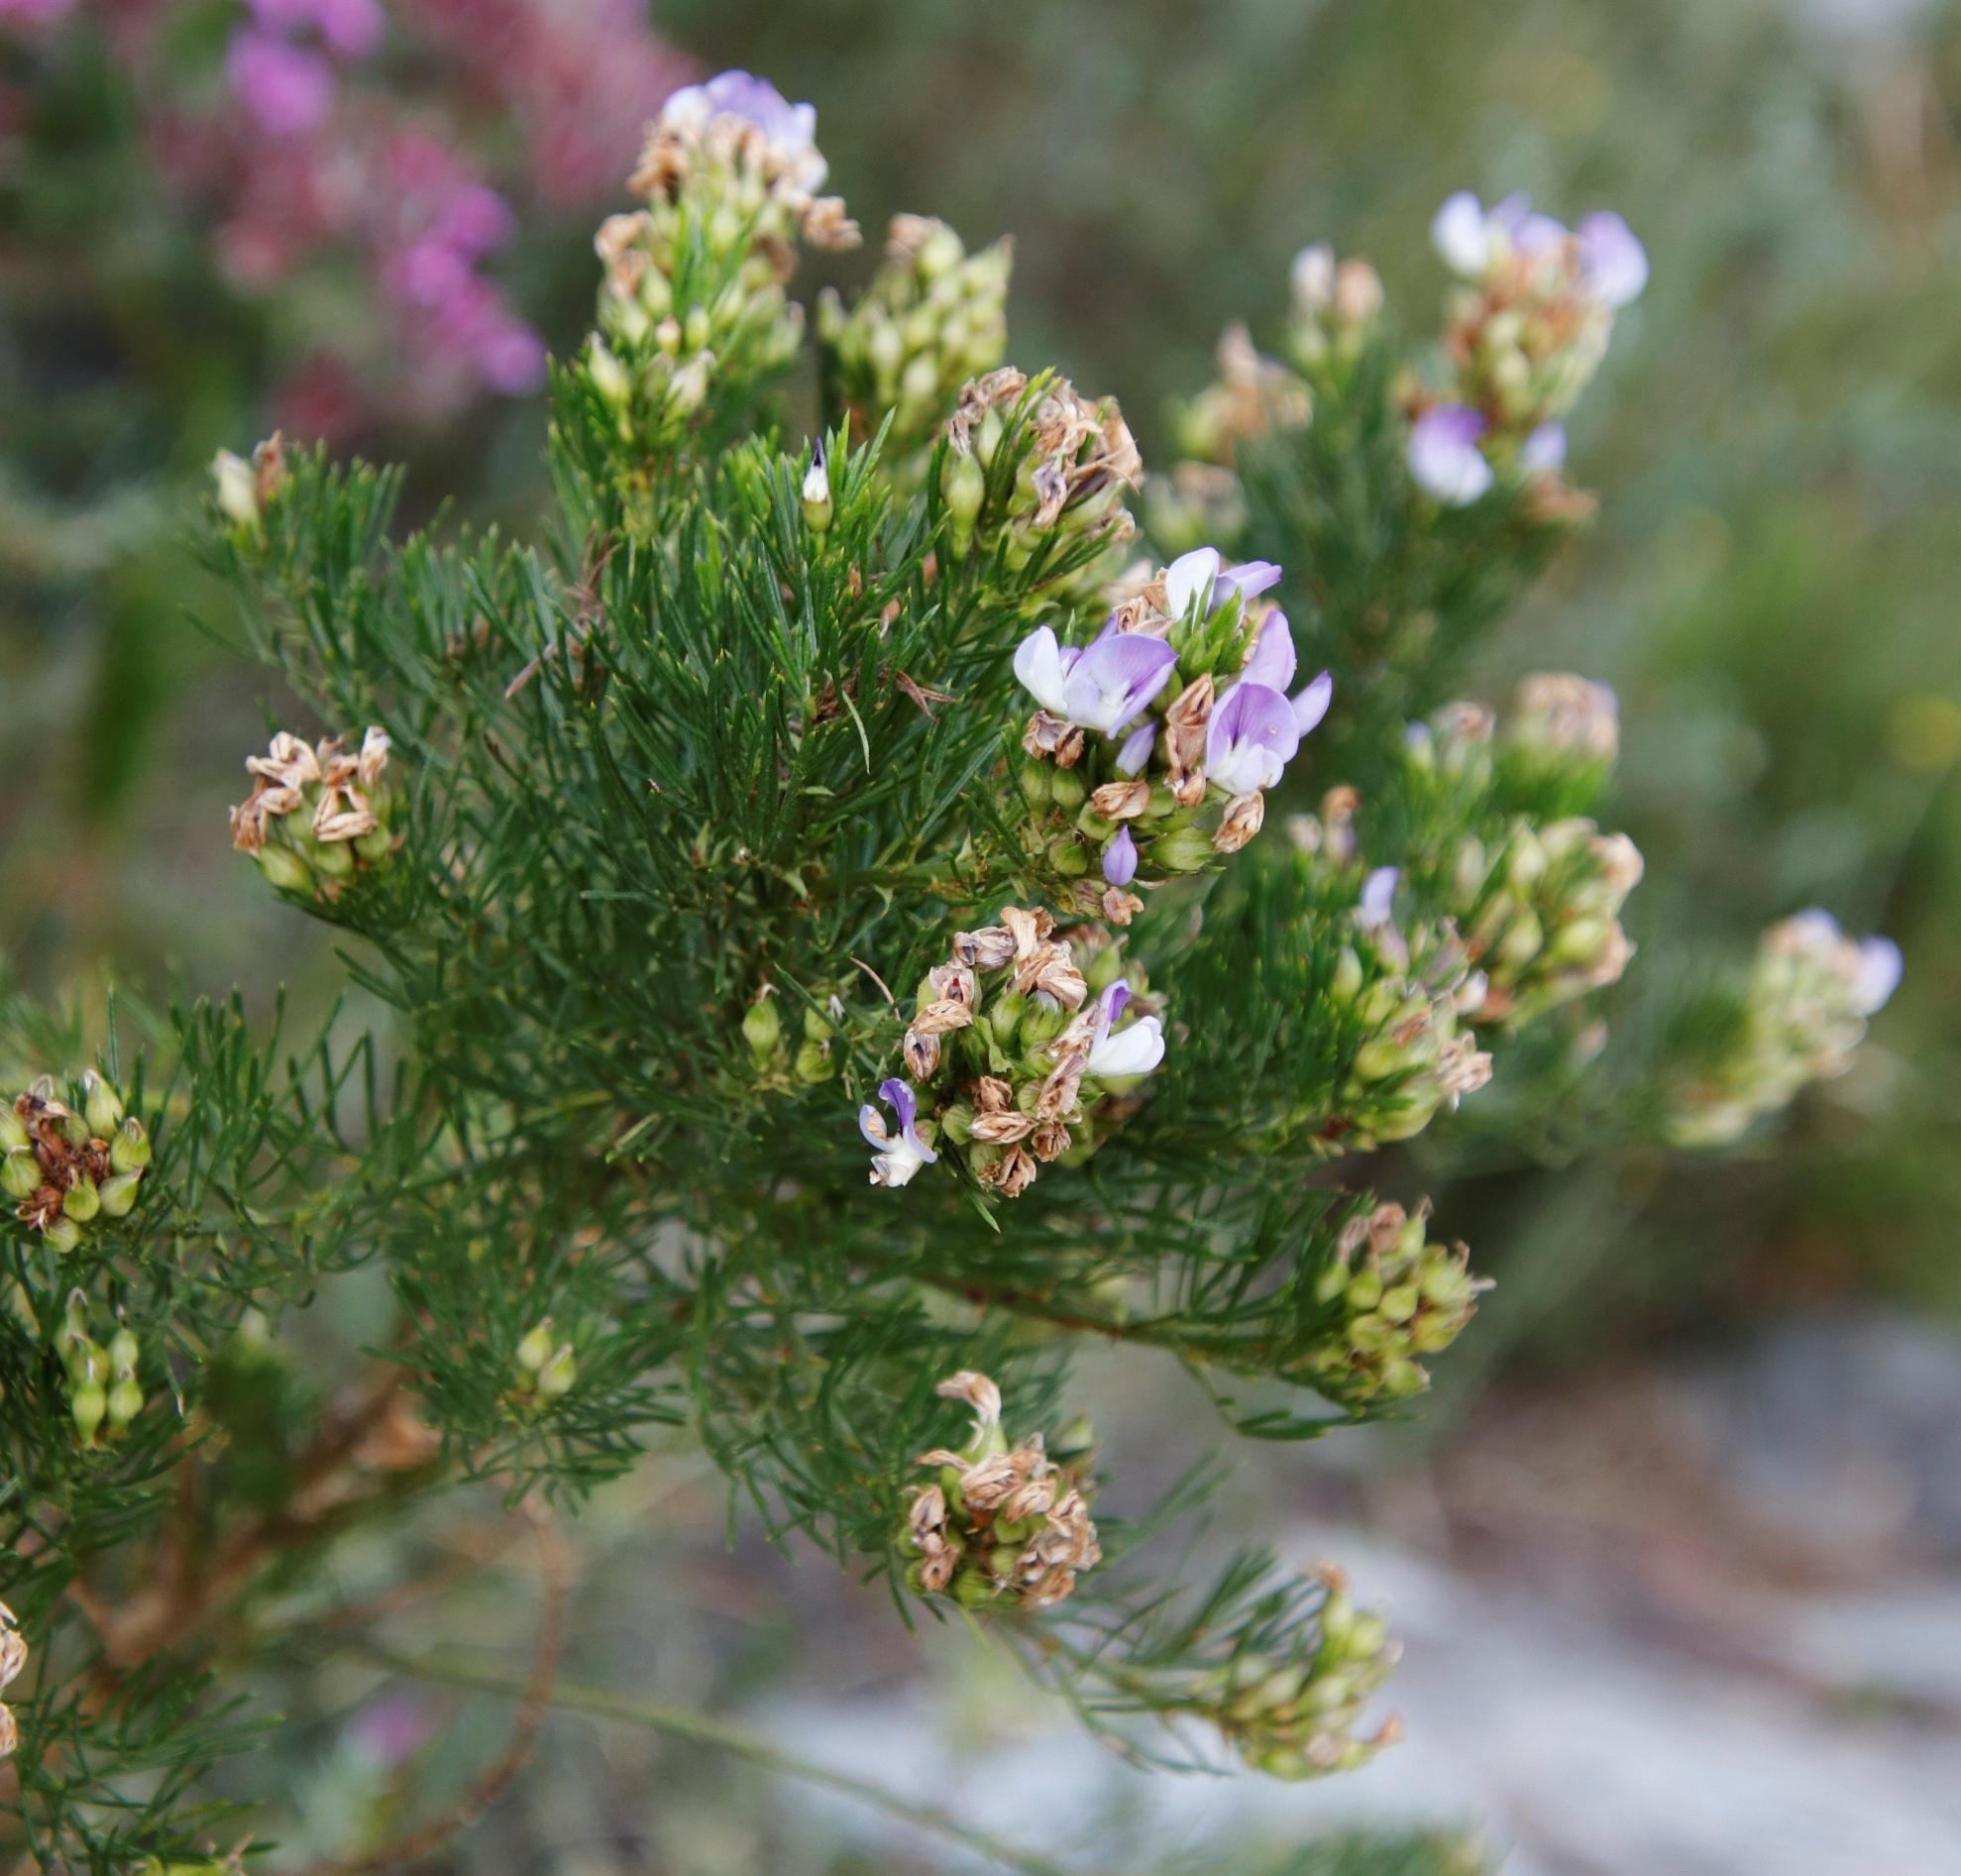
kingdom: Plantae
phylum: Tracheophyta
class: Magnoliopsida
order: Fabales
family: Fabaceae
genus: Psoralea
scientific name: Psoralea pinnata
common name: African scurfpea
